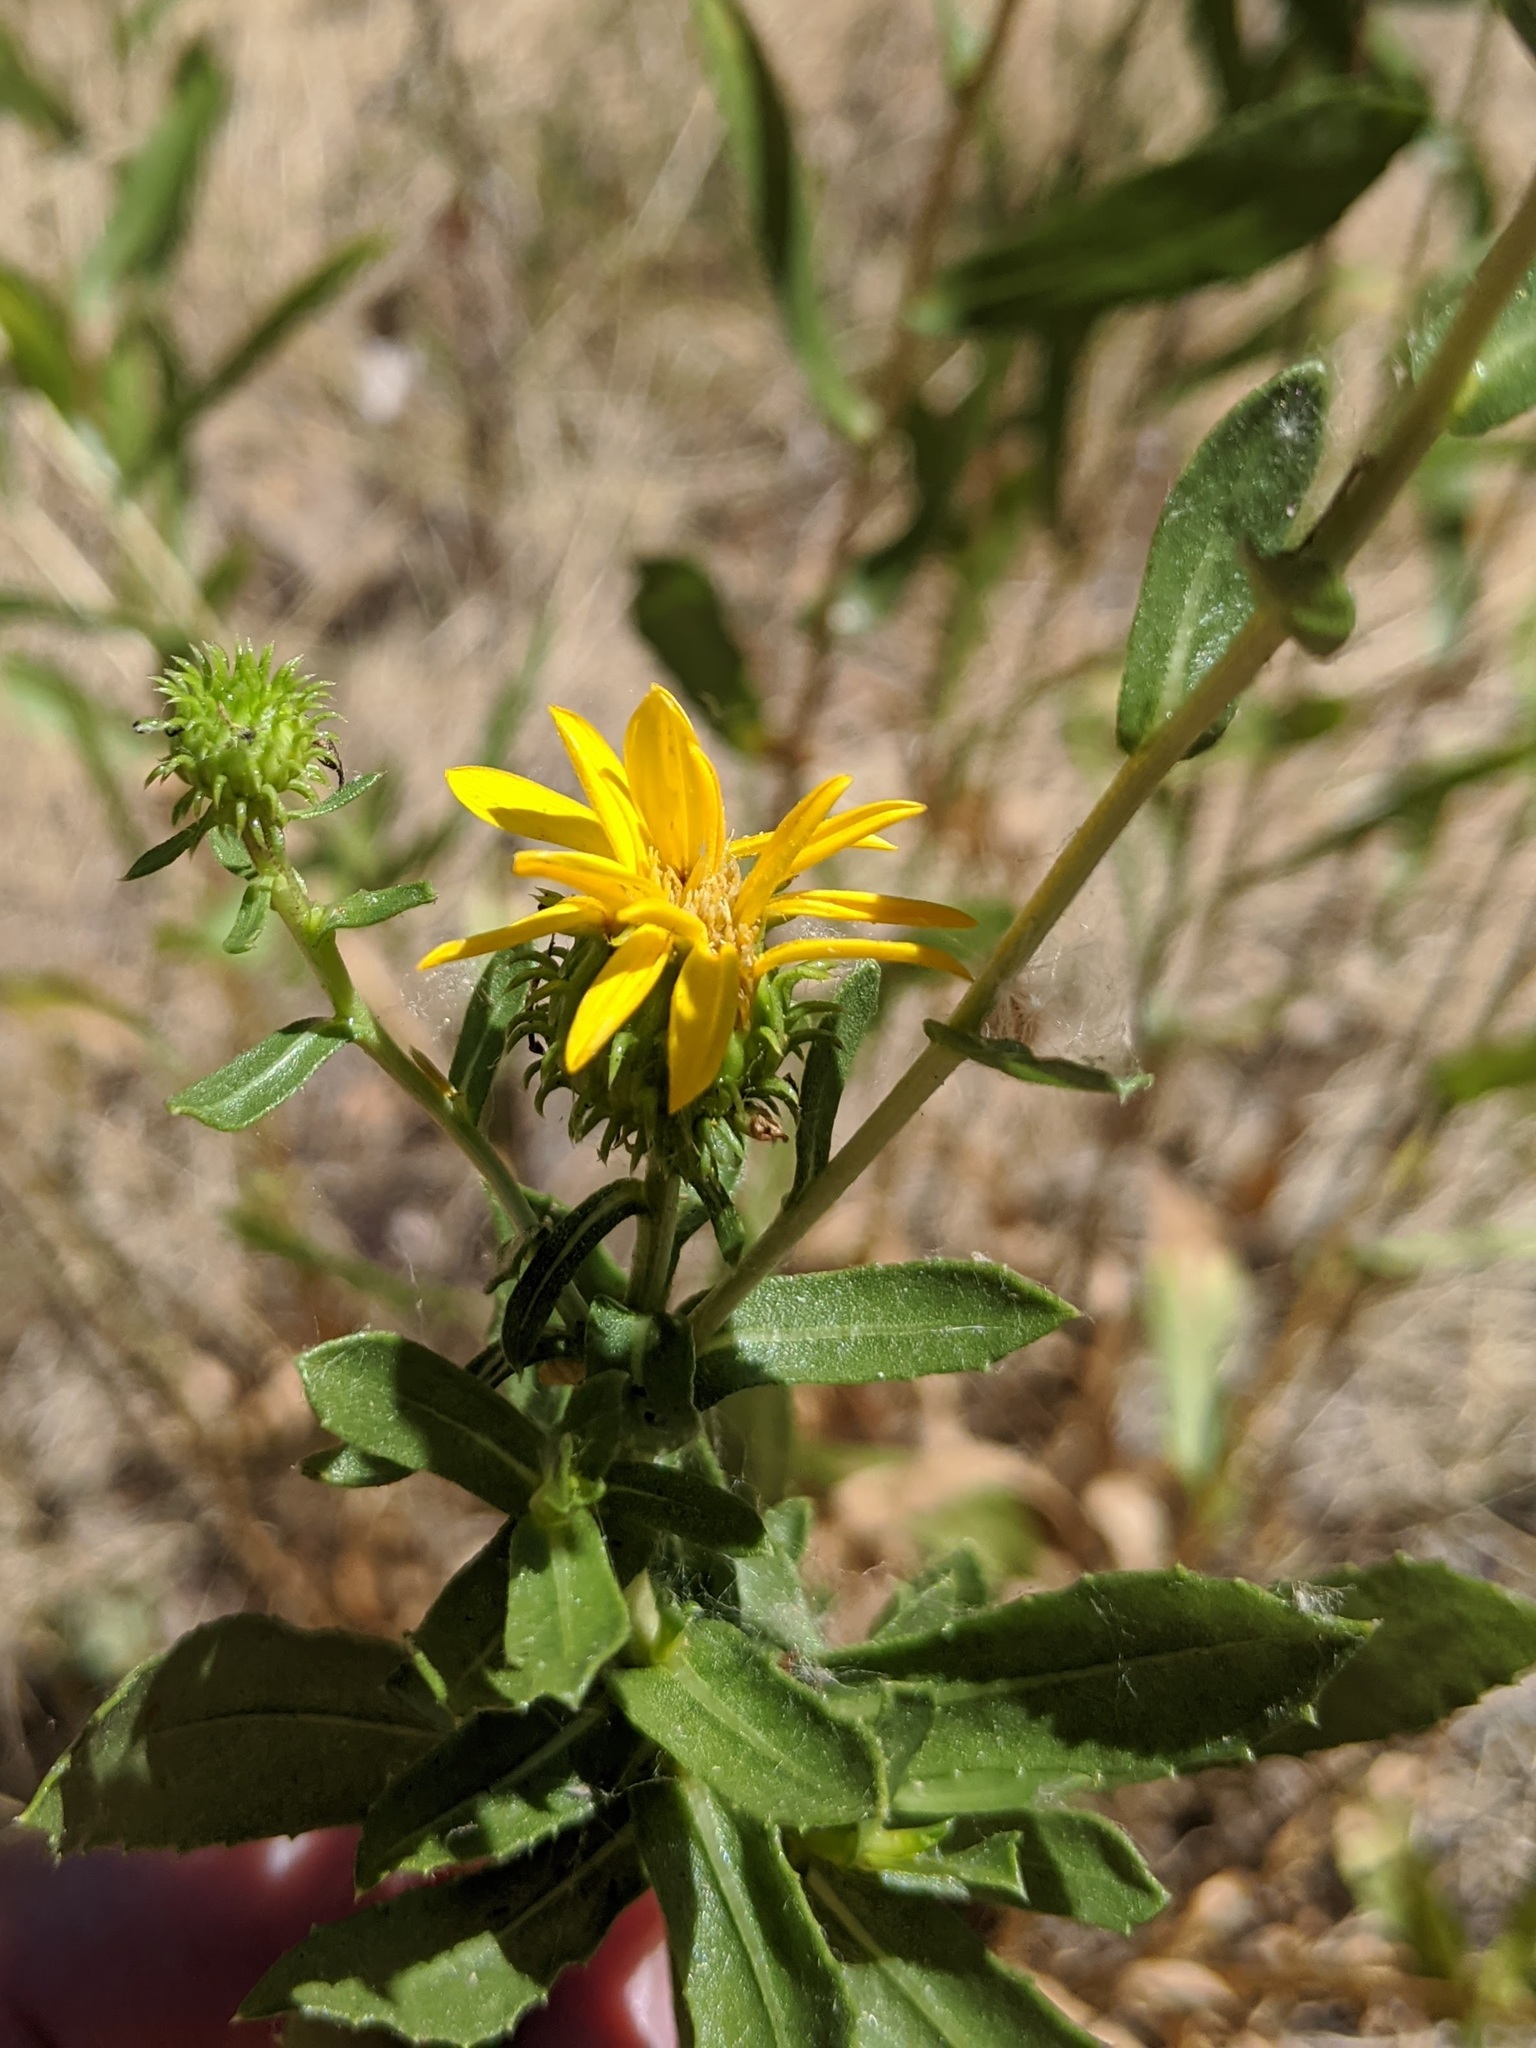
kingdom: Plantae
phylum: Tracheophyta
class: Magnoliopsida
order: Asterales
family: Asteraceae
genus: Grindelia
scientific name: Grindelia hirsutula
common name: Hairy gumweed
